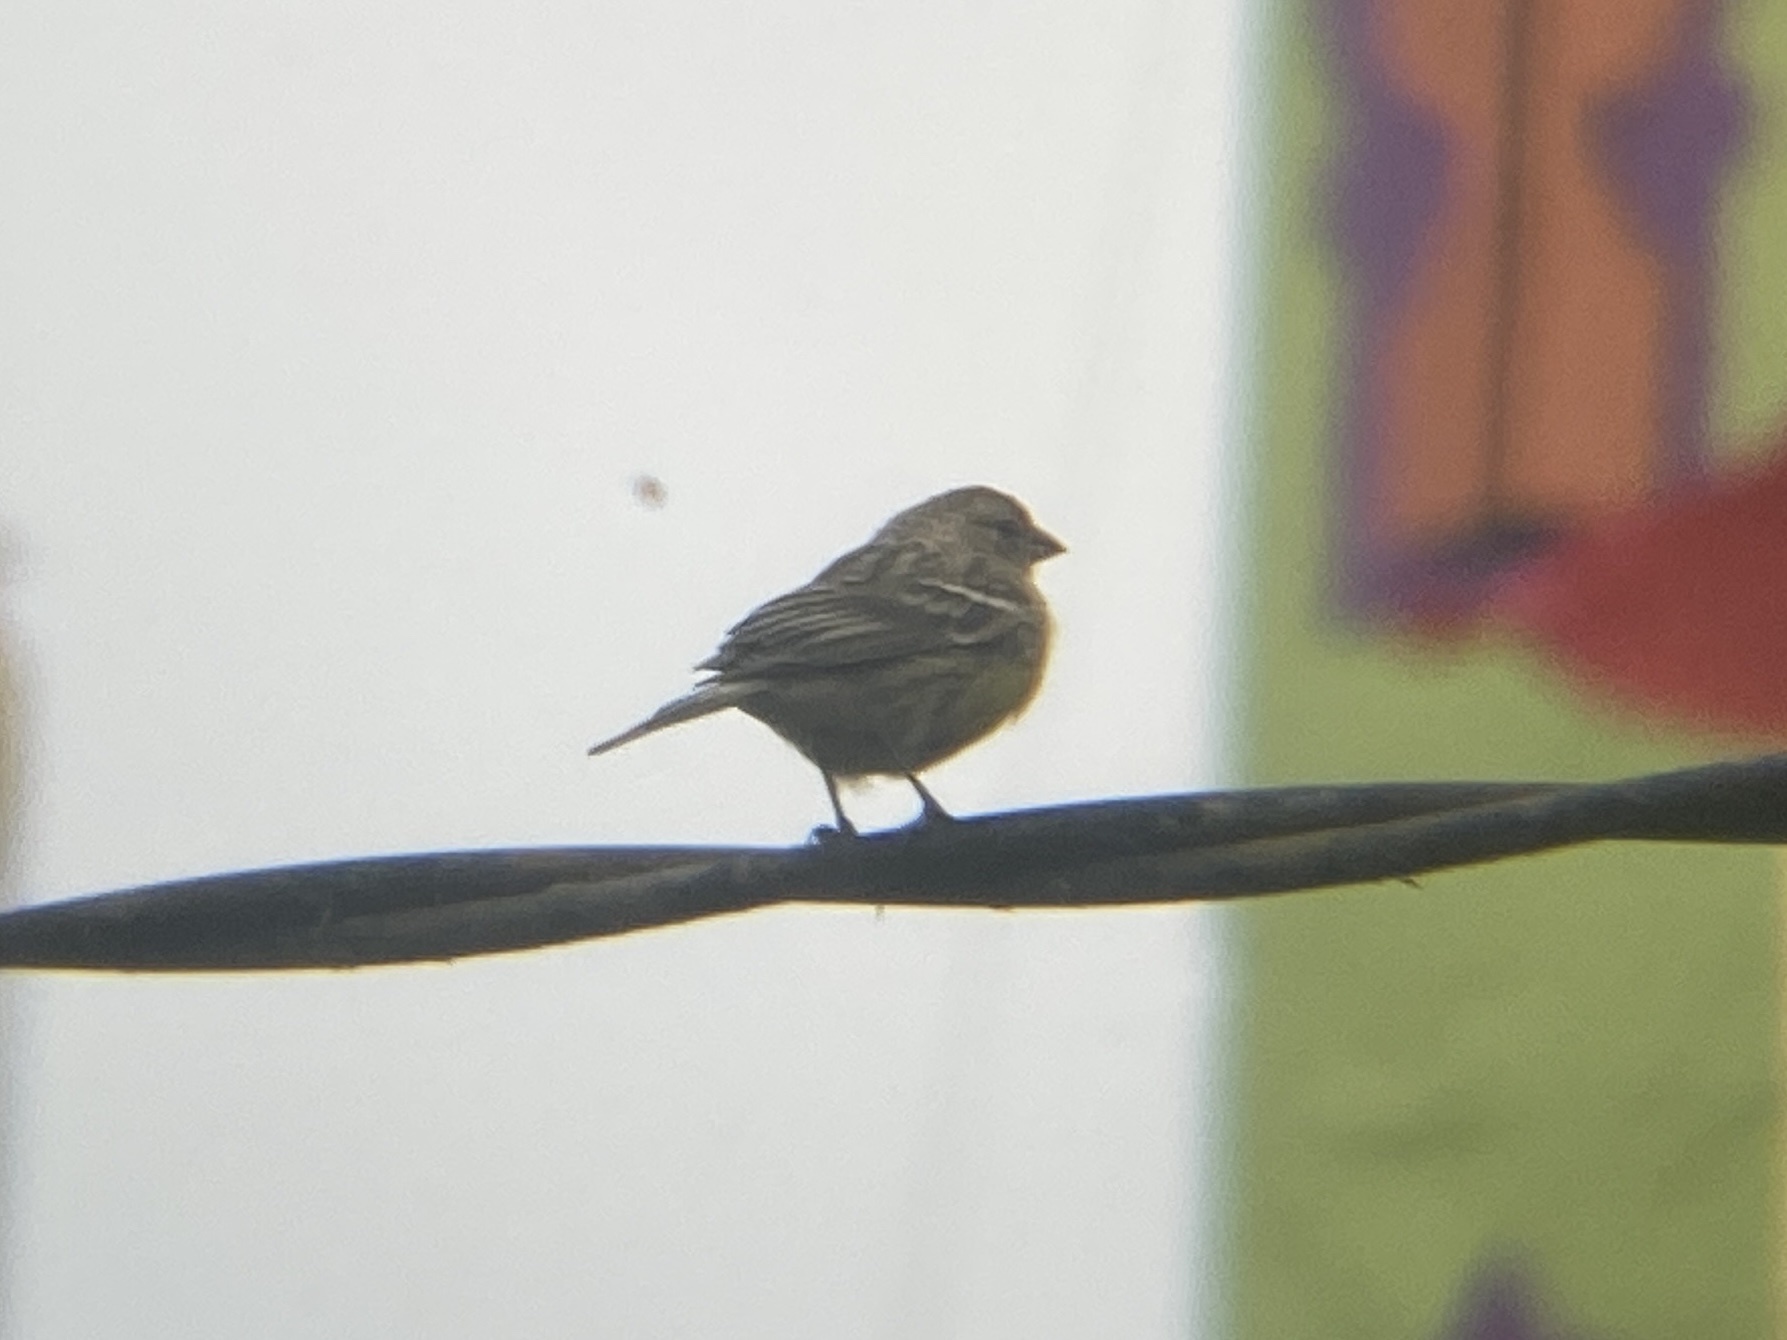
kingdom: Animalia
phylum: Chordata
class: Aves
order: Passeriformes
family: Fringillidae
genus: Serinus
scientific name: Serinus canaria
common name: Atlantic canary
